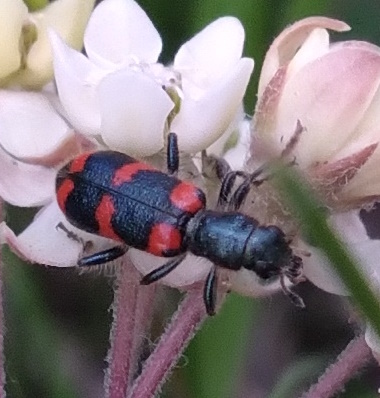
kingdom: Animalia
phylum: Arthropoda
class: Insecta
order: Coleoptera
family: Cleridae
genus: Trichodes
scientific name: Trichodes nutalli
